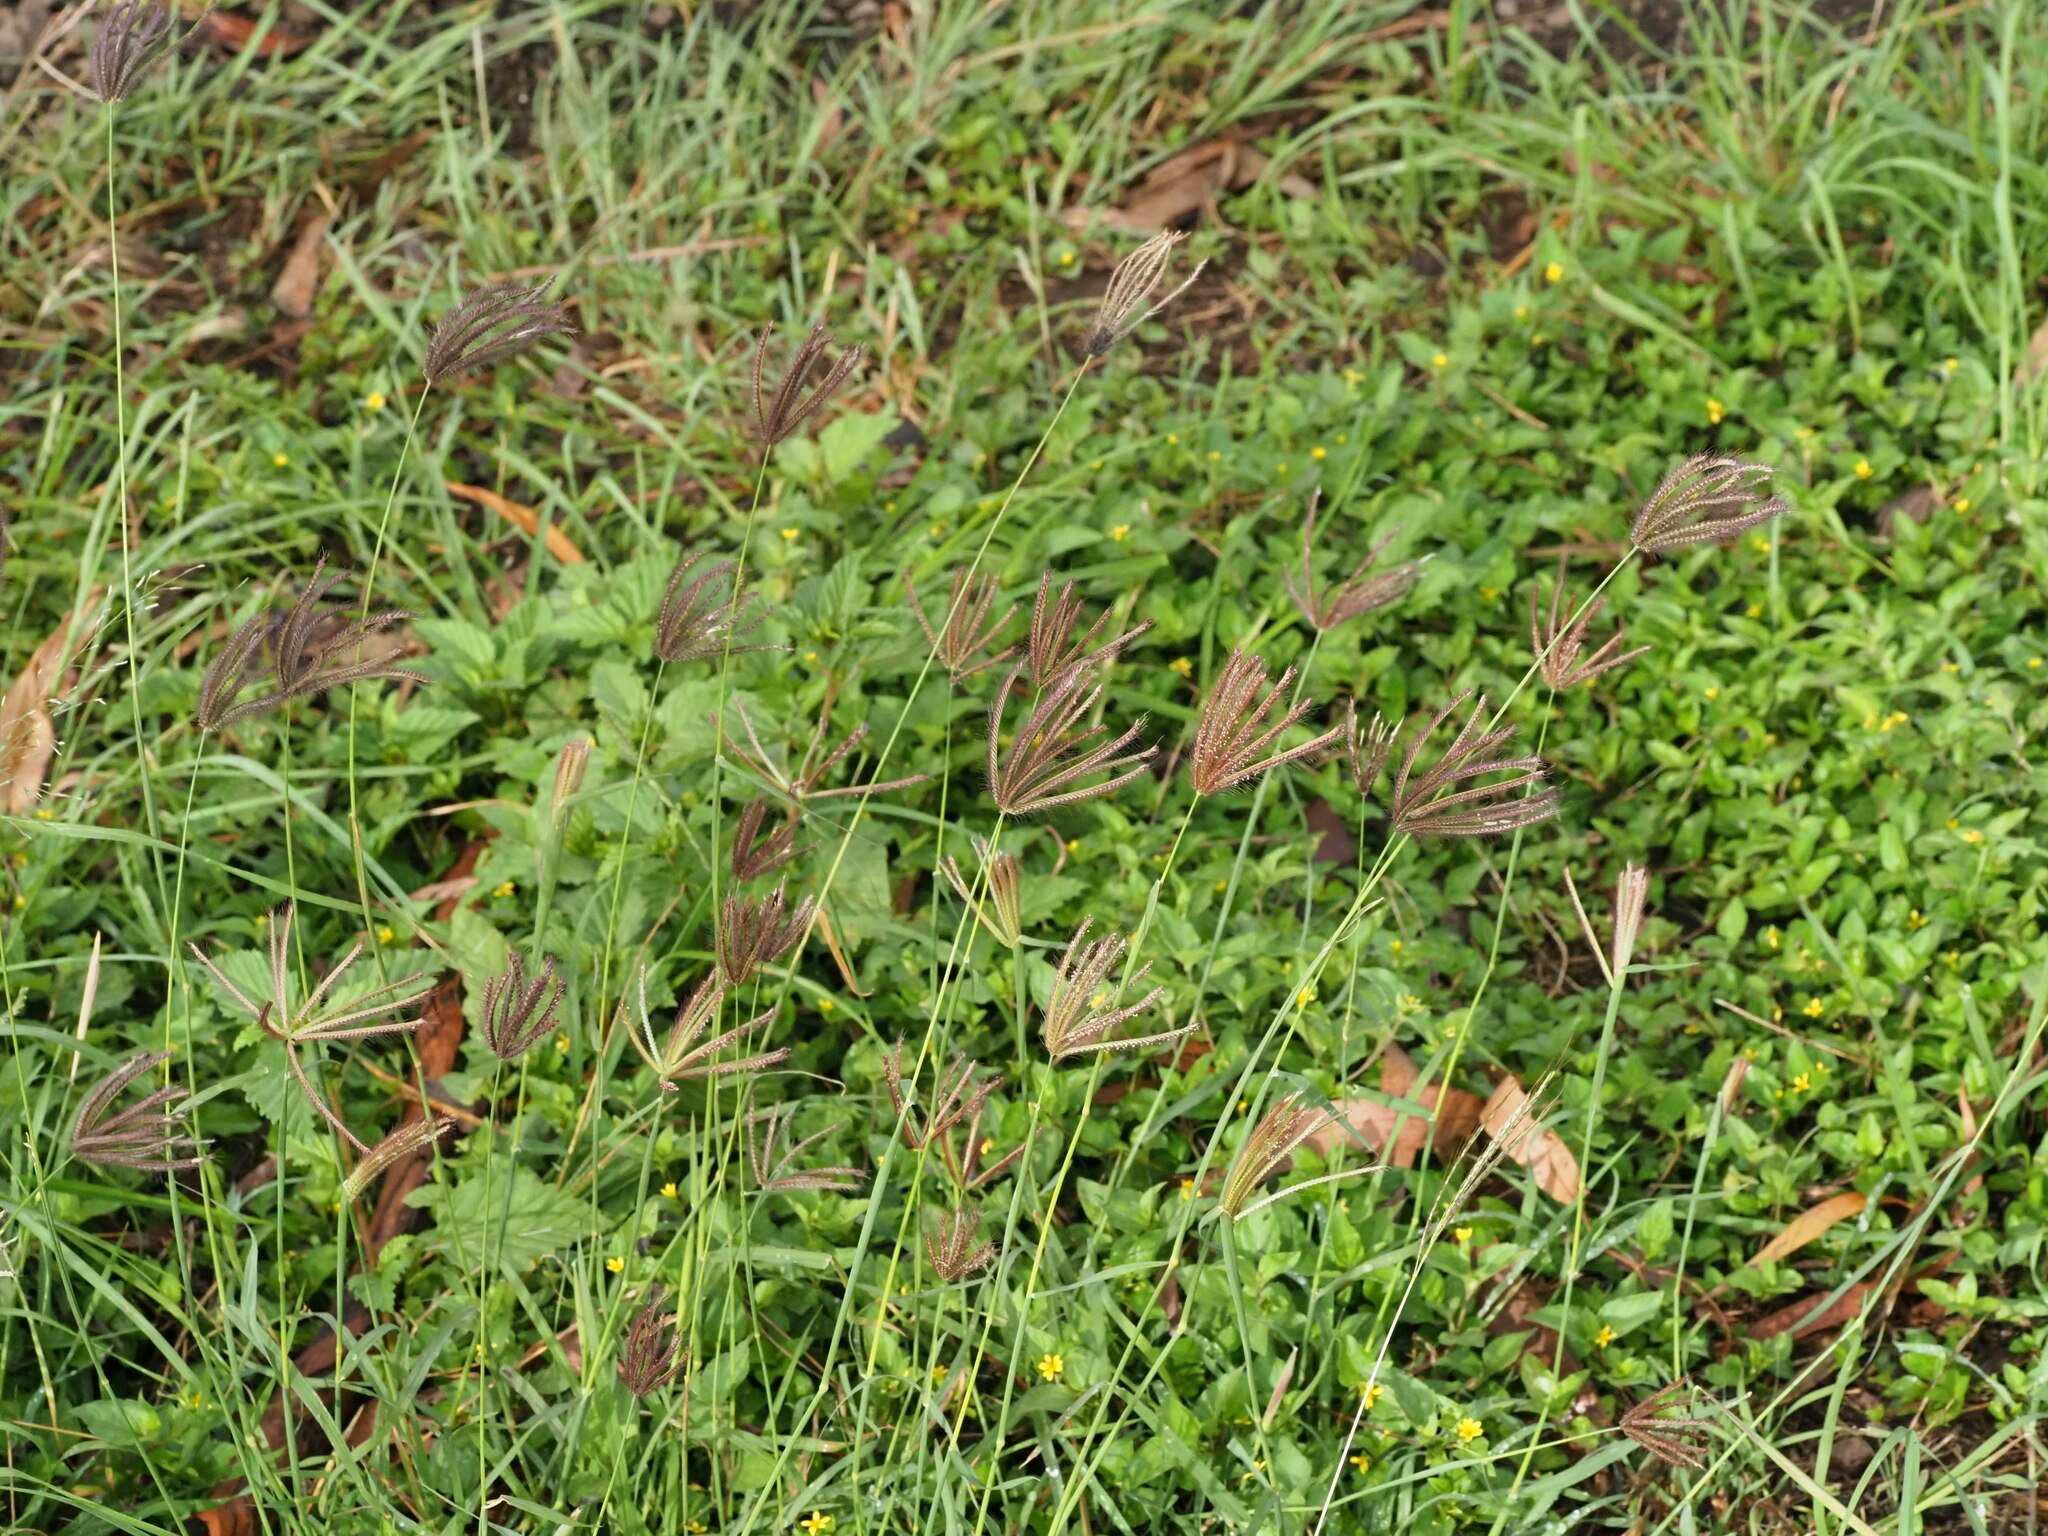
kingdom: Plantae
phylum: Tracheophyta
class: Liliopsida
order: Poales
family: Poaceae
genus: Chloris
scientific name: Chloris barbata
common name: Swollen fingergrass
